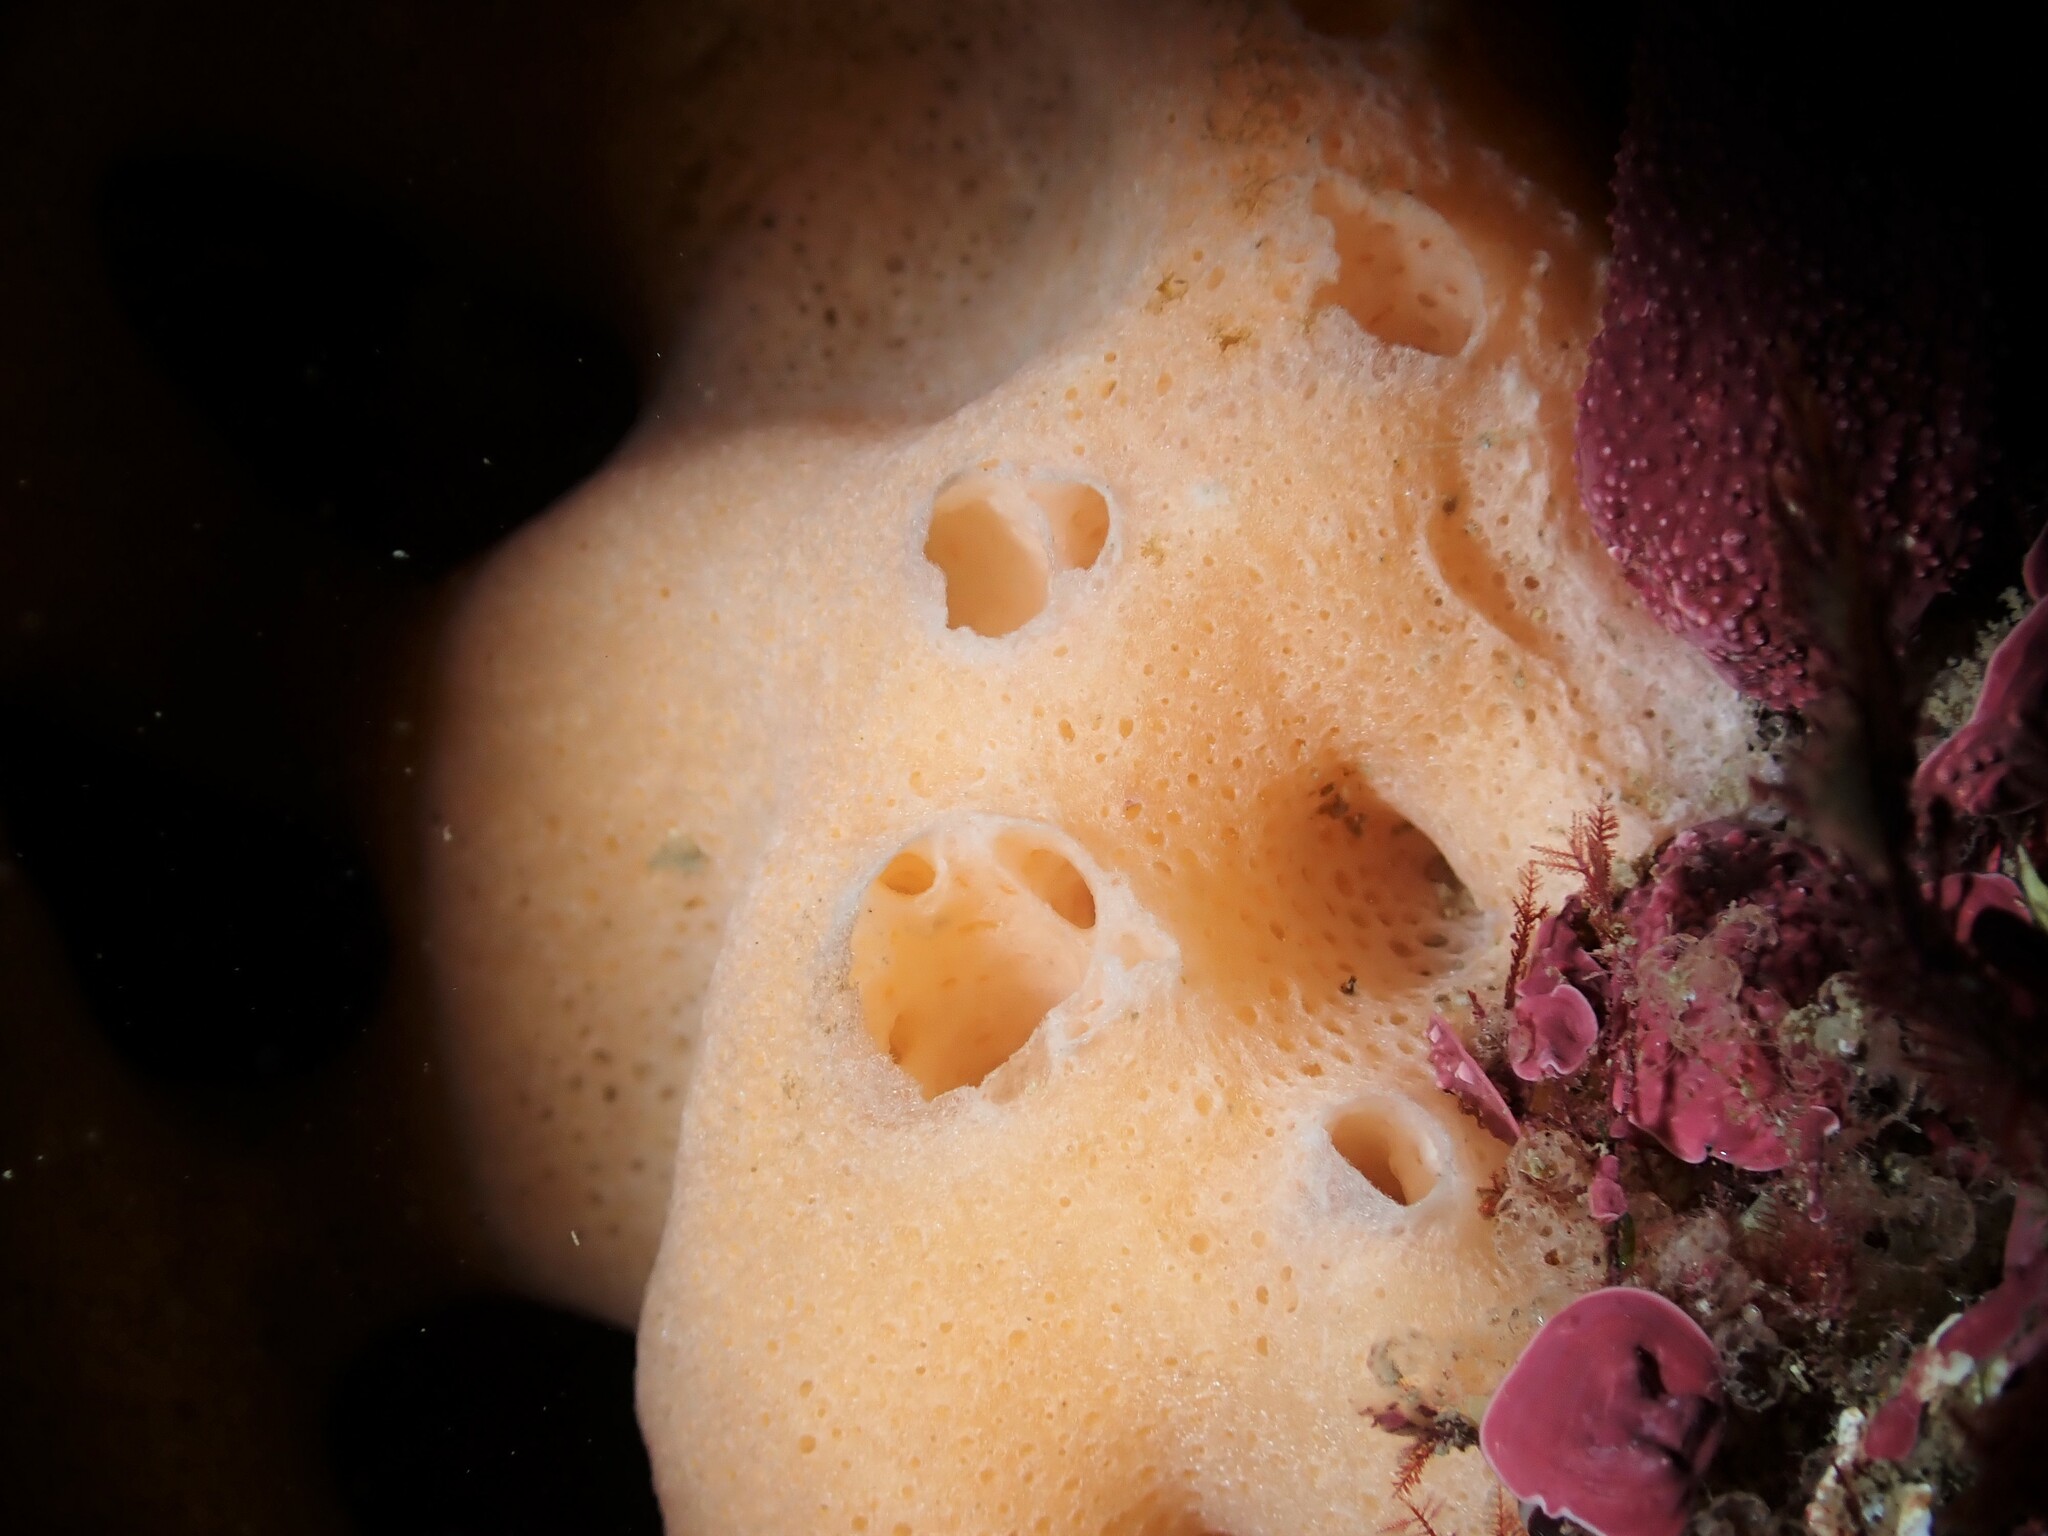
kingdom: Animalia
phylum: Porifera
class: Calcarea
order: Clathrinida
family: Leucascidae
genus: Leucascus
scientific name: Leucascus protogenes
